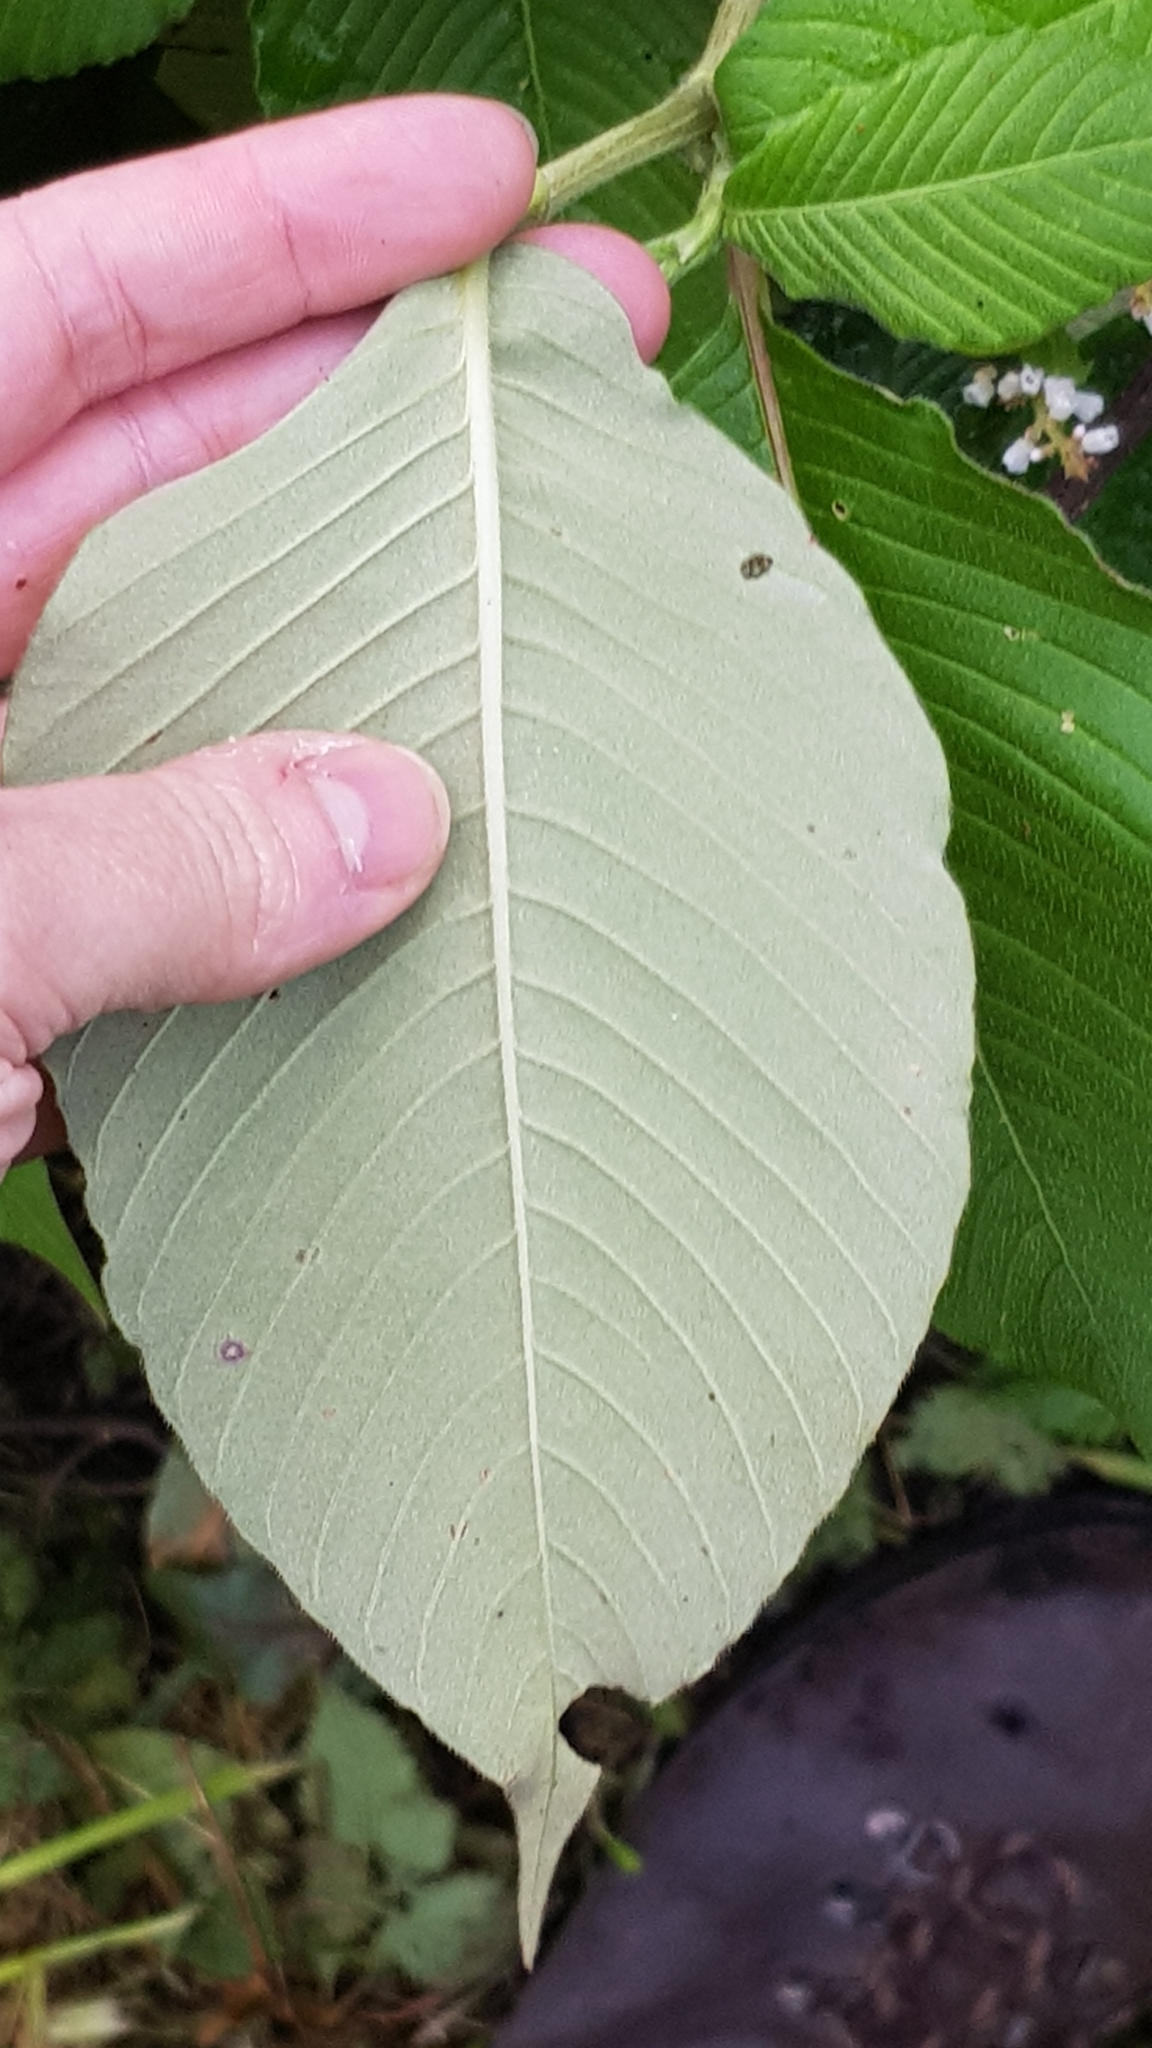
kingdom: Plantae
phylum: Tracheophyta
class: Magnoliopsida
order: Caryophyllales
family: Polygonaceae
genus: Koenigia
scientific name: Koenigia campanulata
